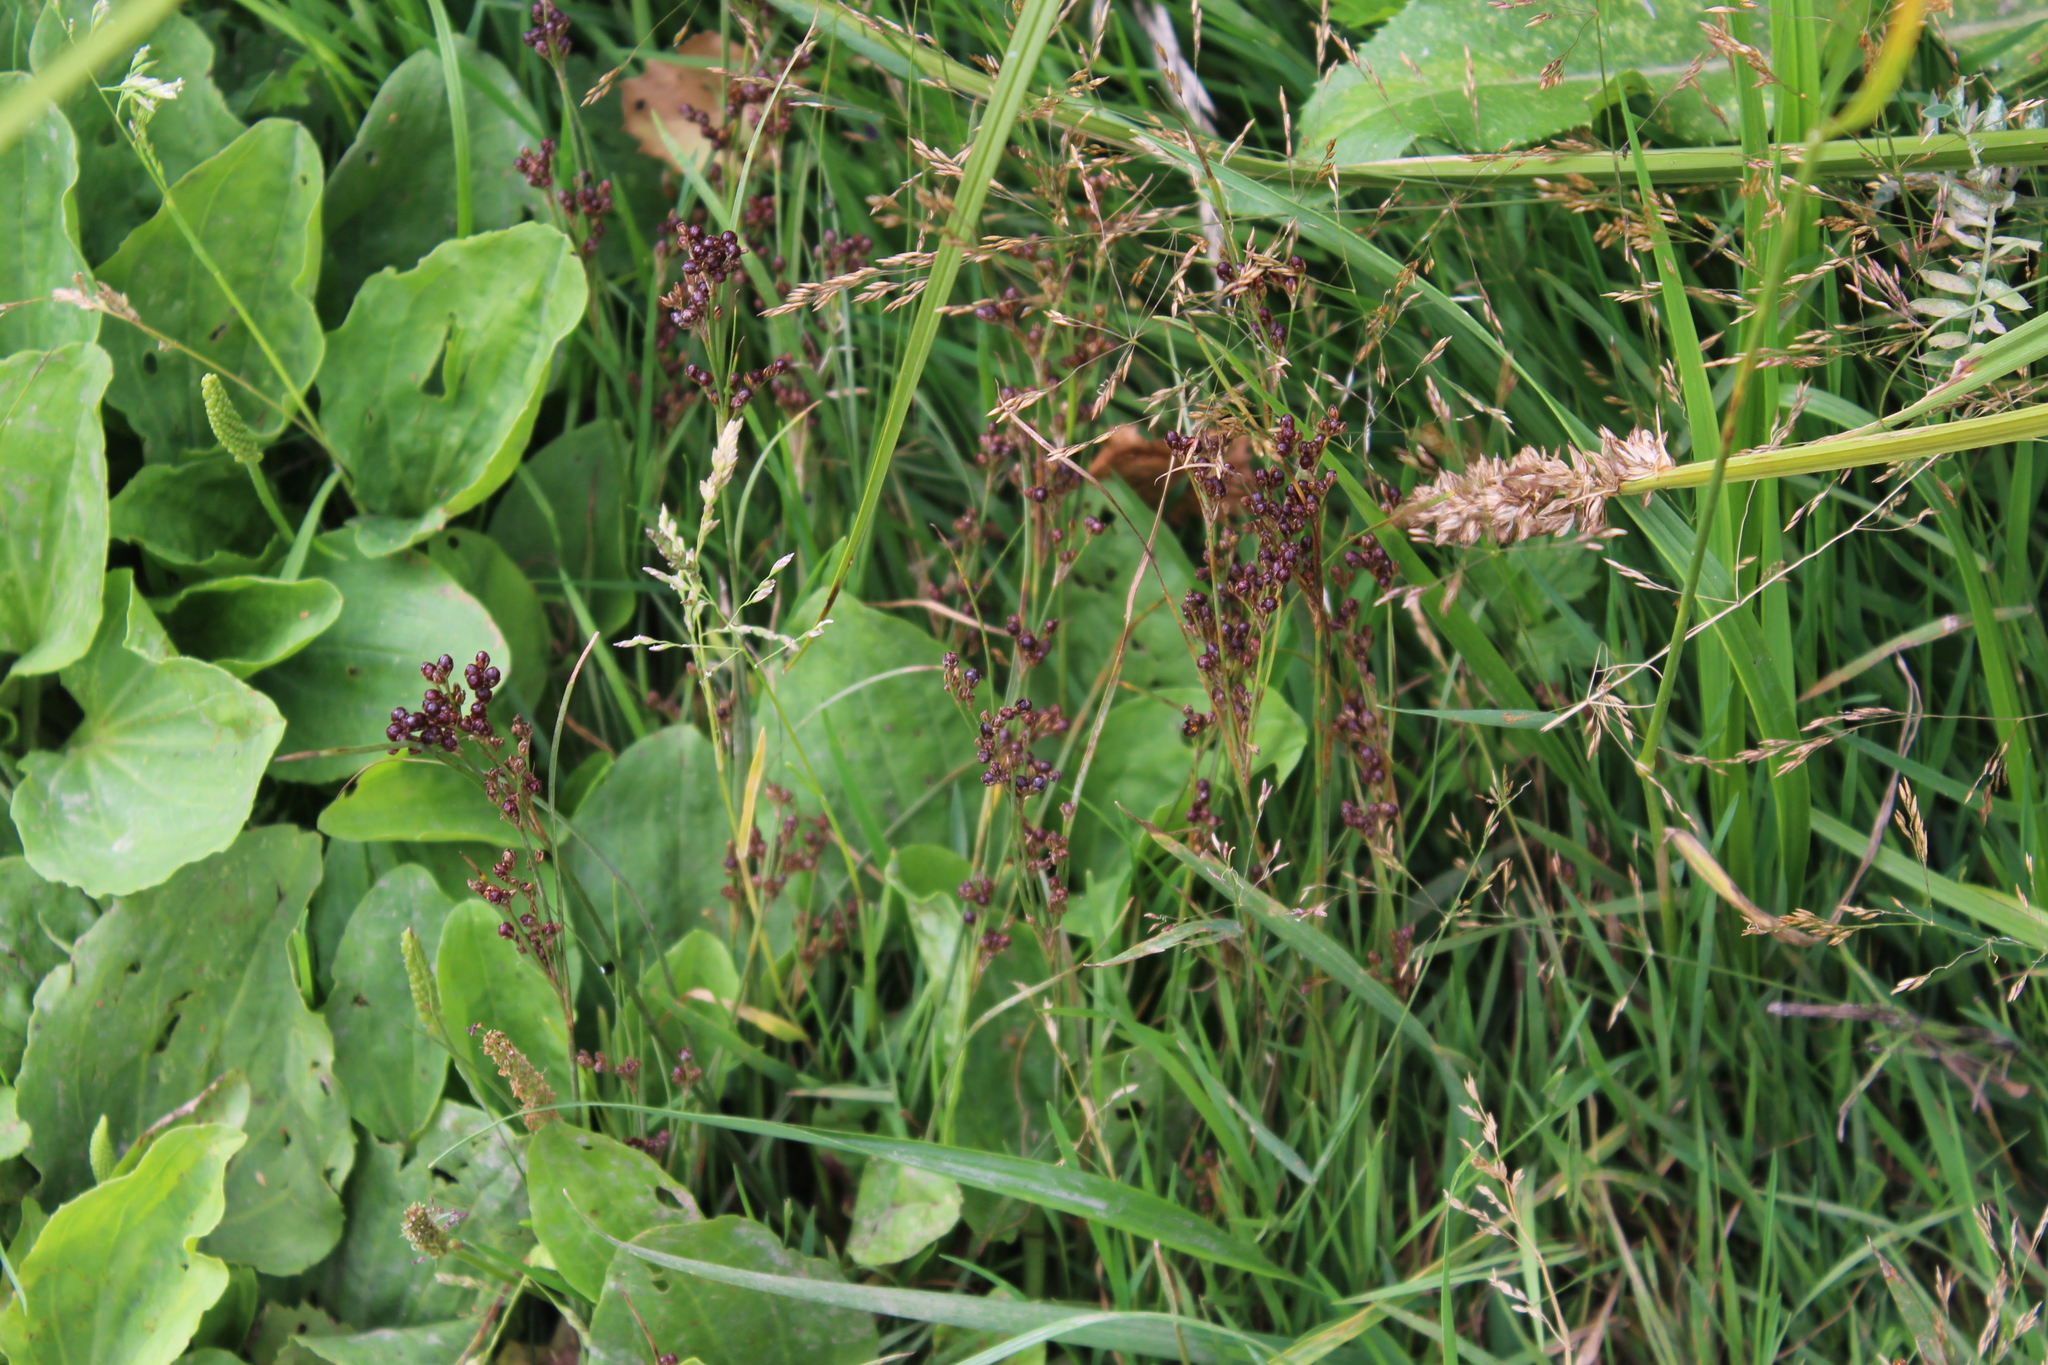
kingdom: Plantae
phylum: Tracheophyta
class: Liliopsida
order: Poales
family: Juncaceae
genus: Juncus
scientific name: Juncus compressus
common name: Round-fruited rush
